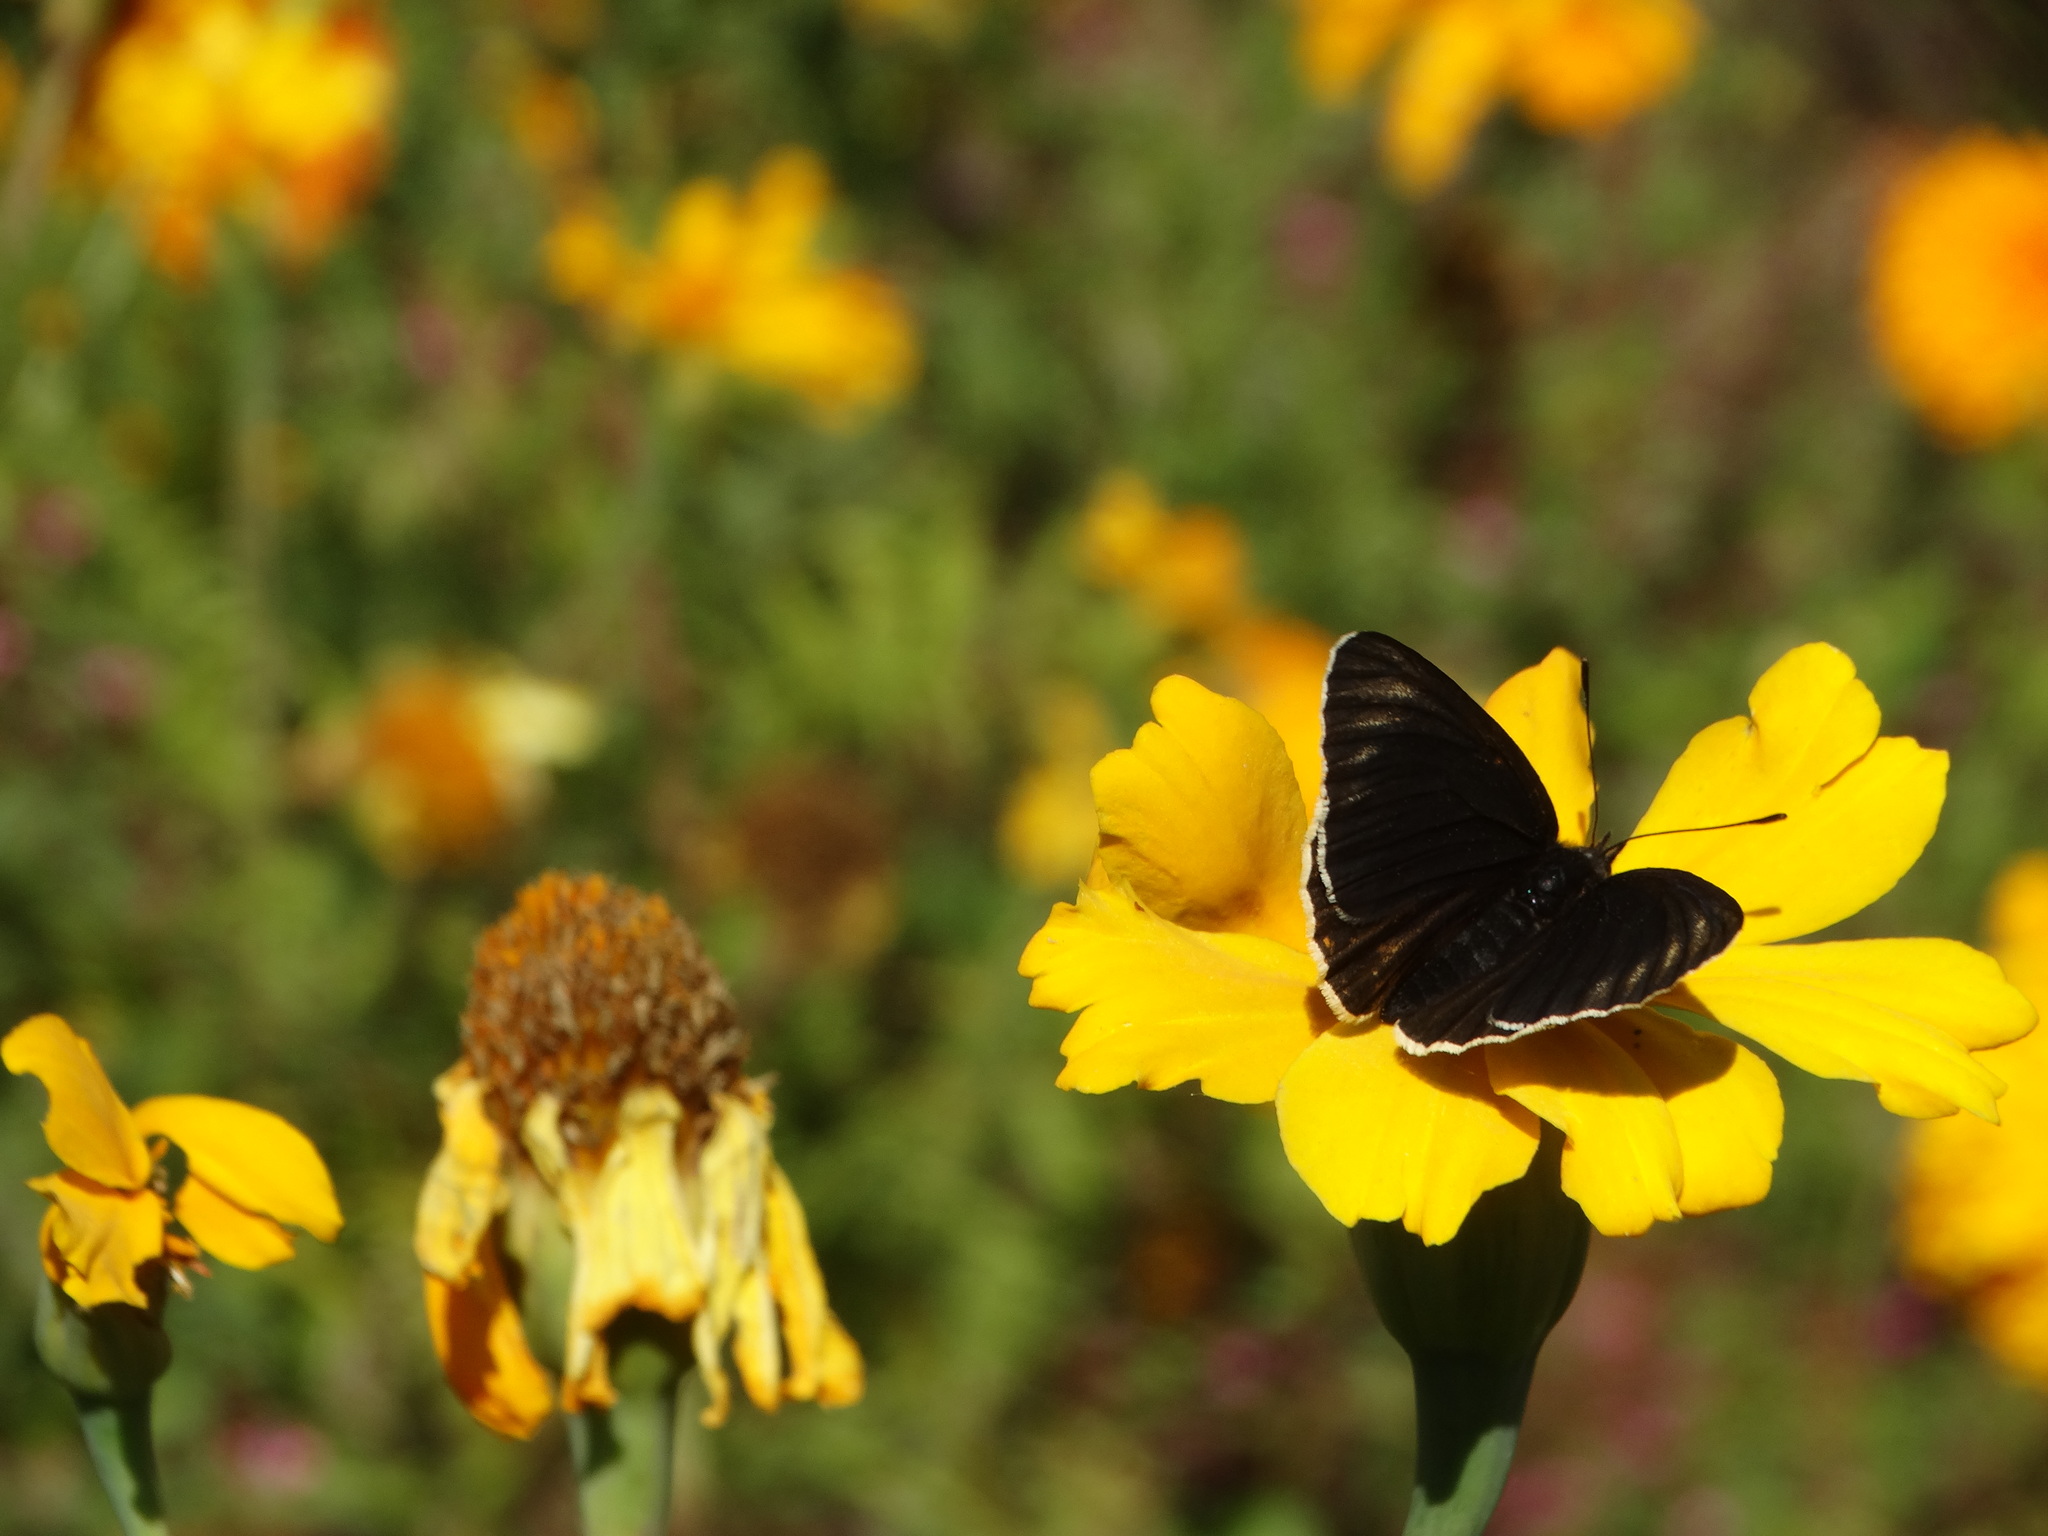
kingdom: Animalia
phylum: Arthropoda
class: Insecta
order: Lepidoptera
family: Nymphalidae
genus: Chlosyne
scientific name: Chlosyne ehrenbergii
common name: White-rayed patch
